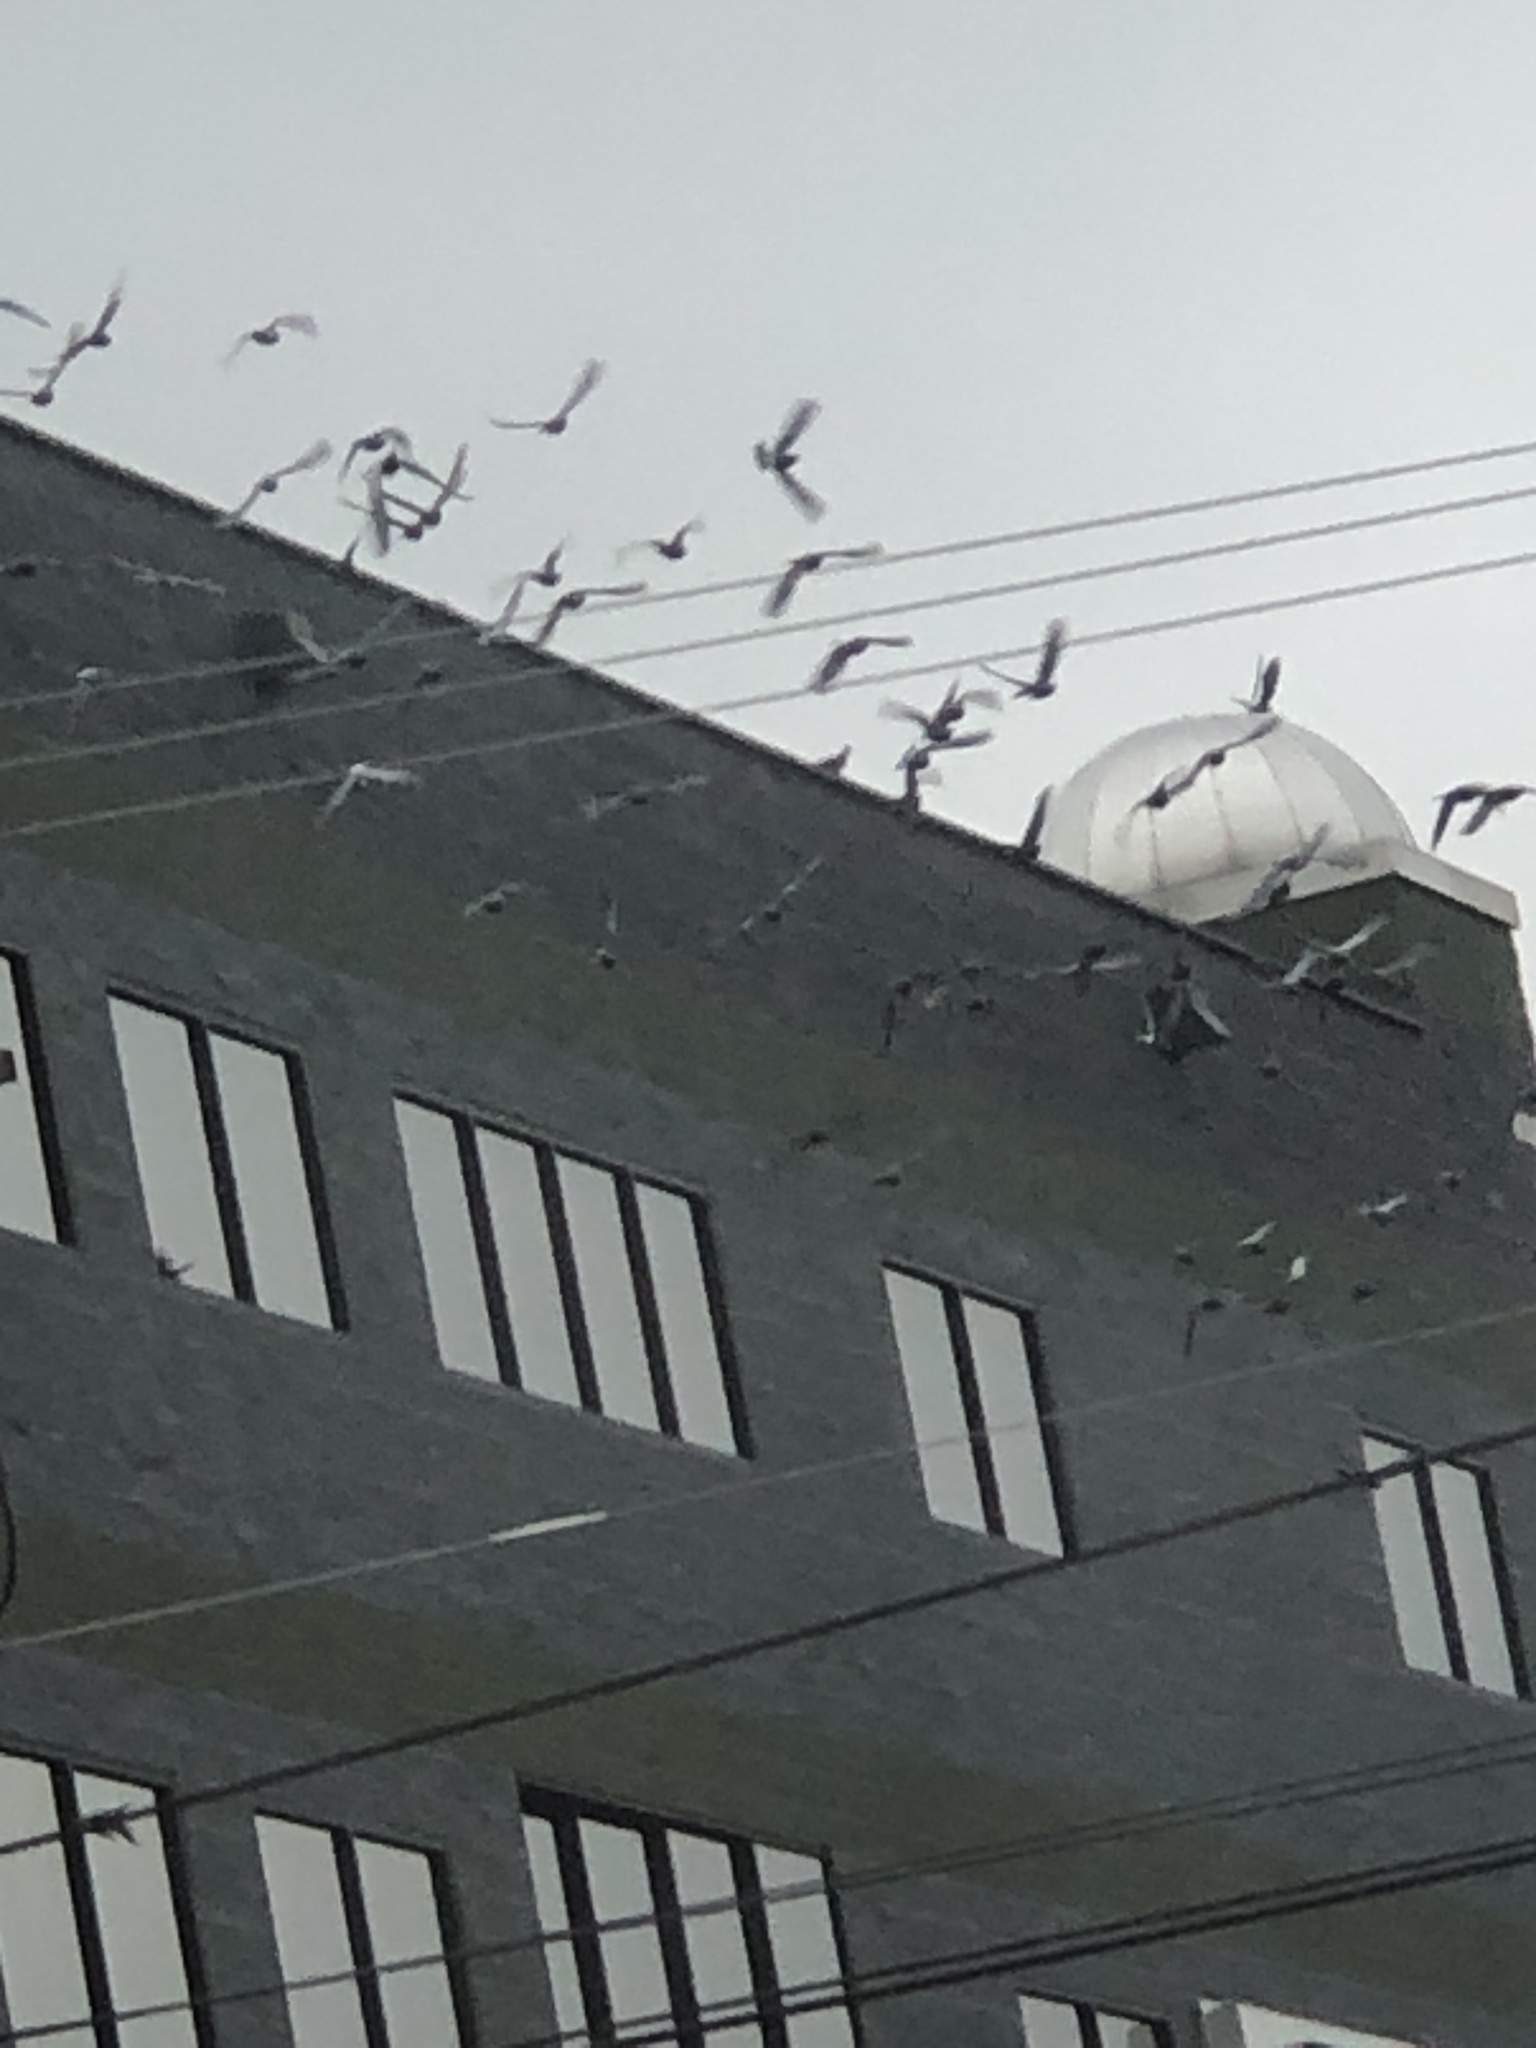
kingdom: Animalia
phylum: Chordata
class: Aves
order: Columbiformes
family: Columbidae
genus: Columba
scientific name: Columba livia
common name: Rock pigeon
